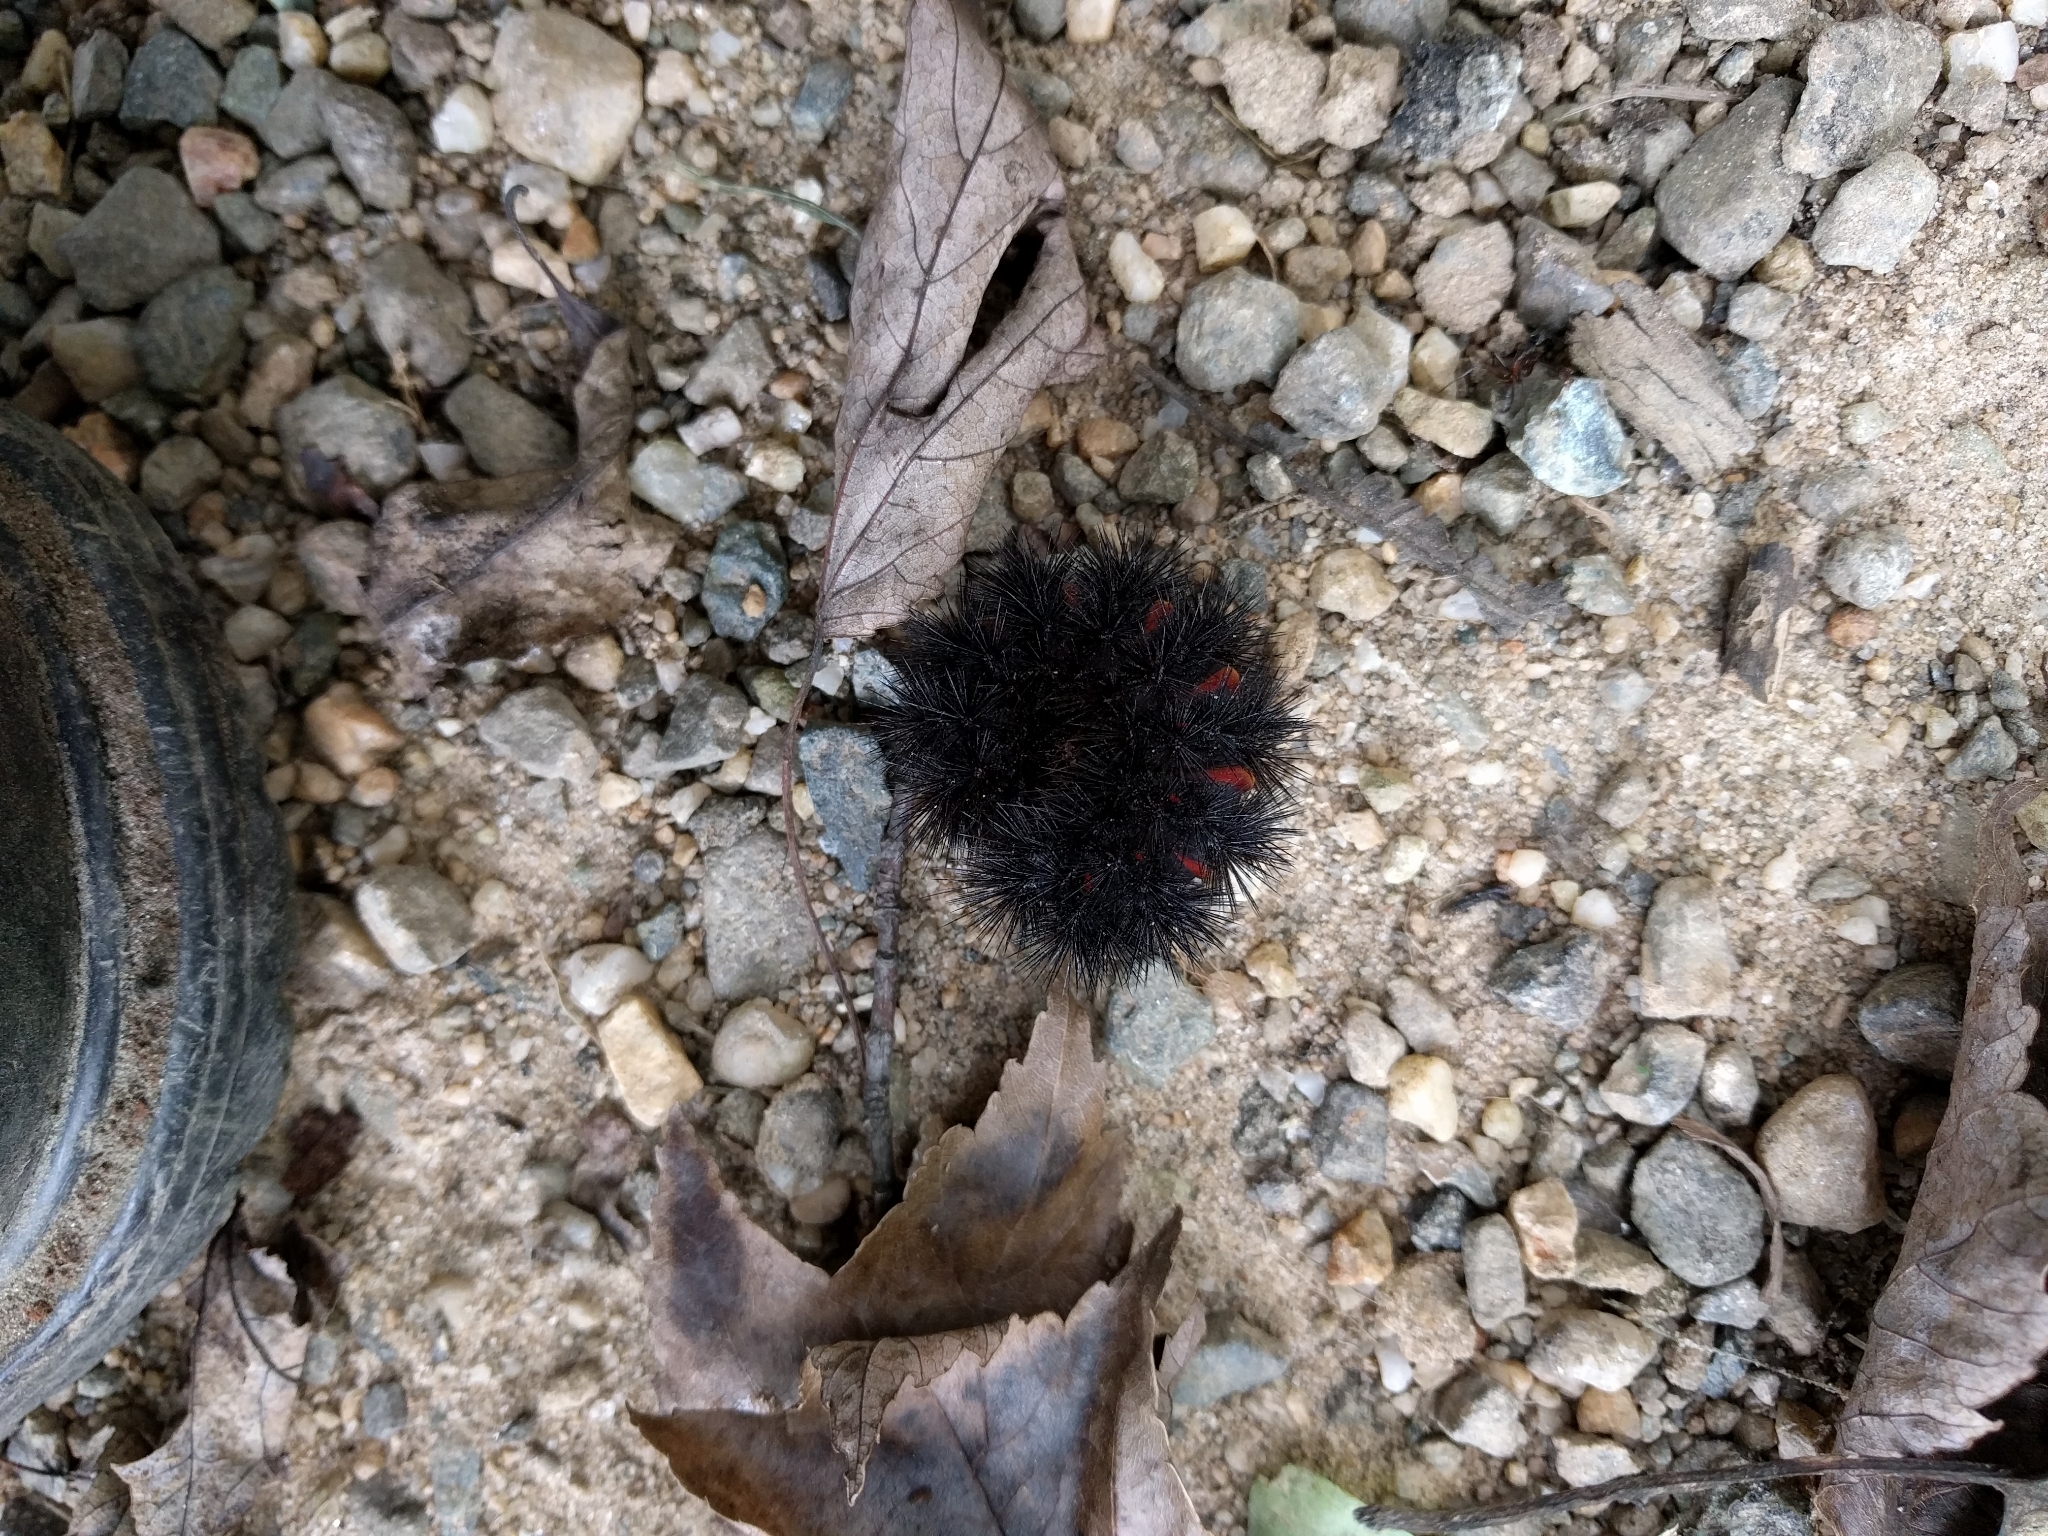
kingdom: Animalia
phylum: Arthropoda
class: Insecta
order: Lepidoptera
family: Erebidae
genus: Hypercompe
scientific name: Hypercompe scribonia
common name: Giant leopard moth
